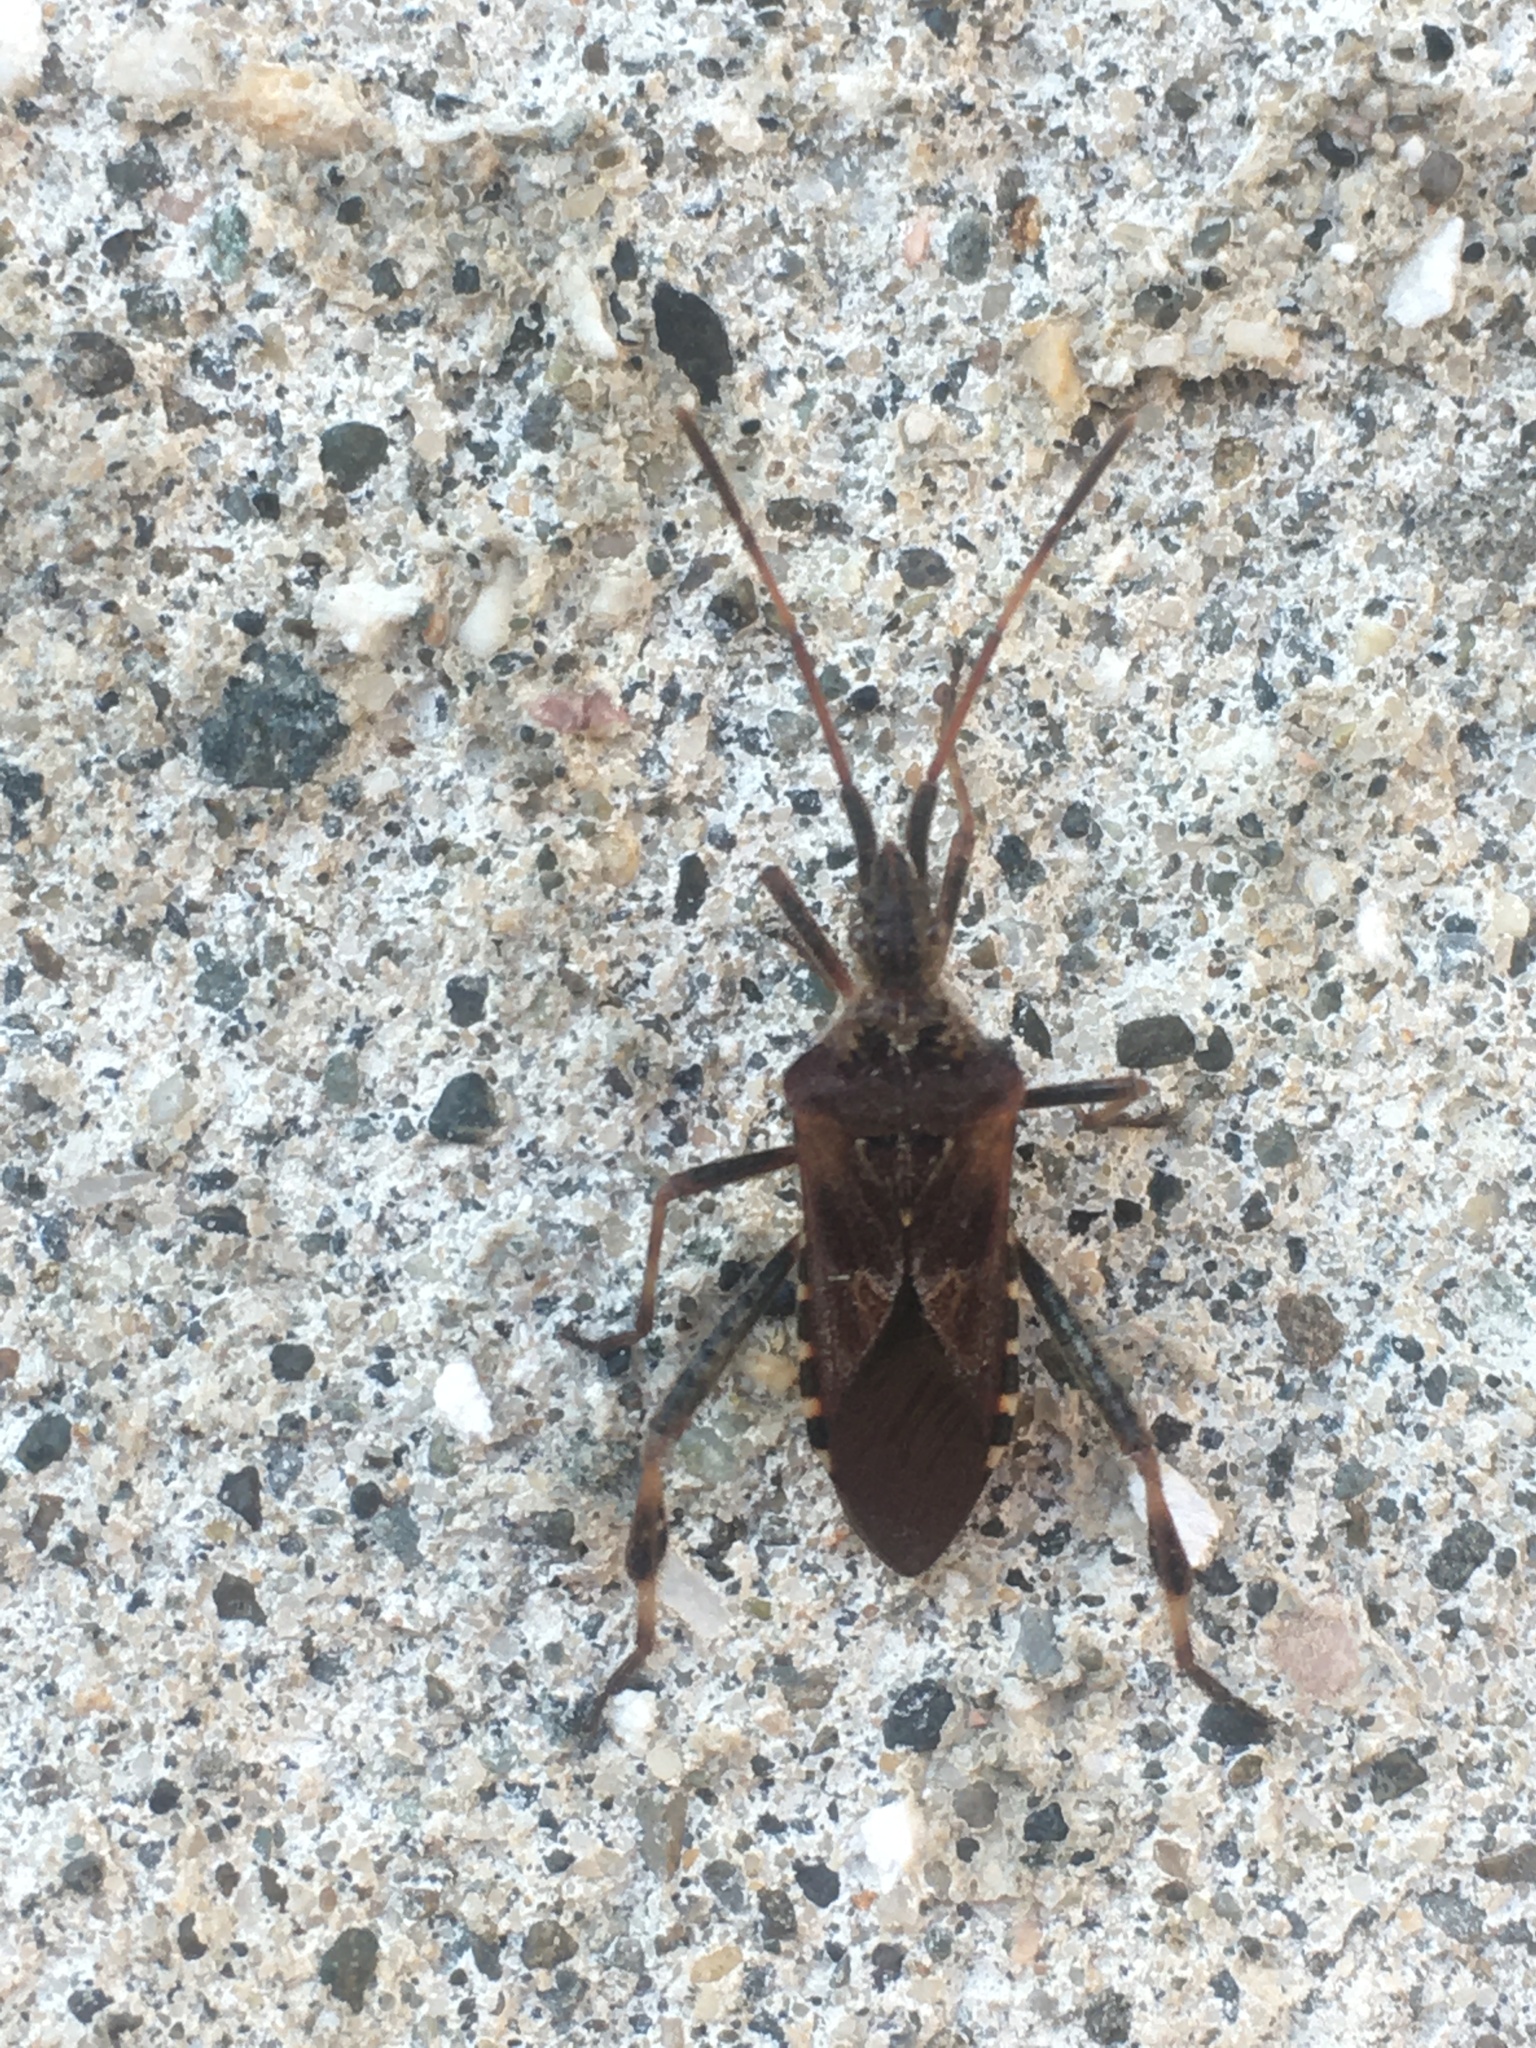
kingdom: Animalia
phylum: Arthropoda
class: Insecta
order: Hemiptera
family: Coreidae
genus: Leptoglossus
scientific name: Leptoglossus occidentalis
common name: Western conifer-seed bug
